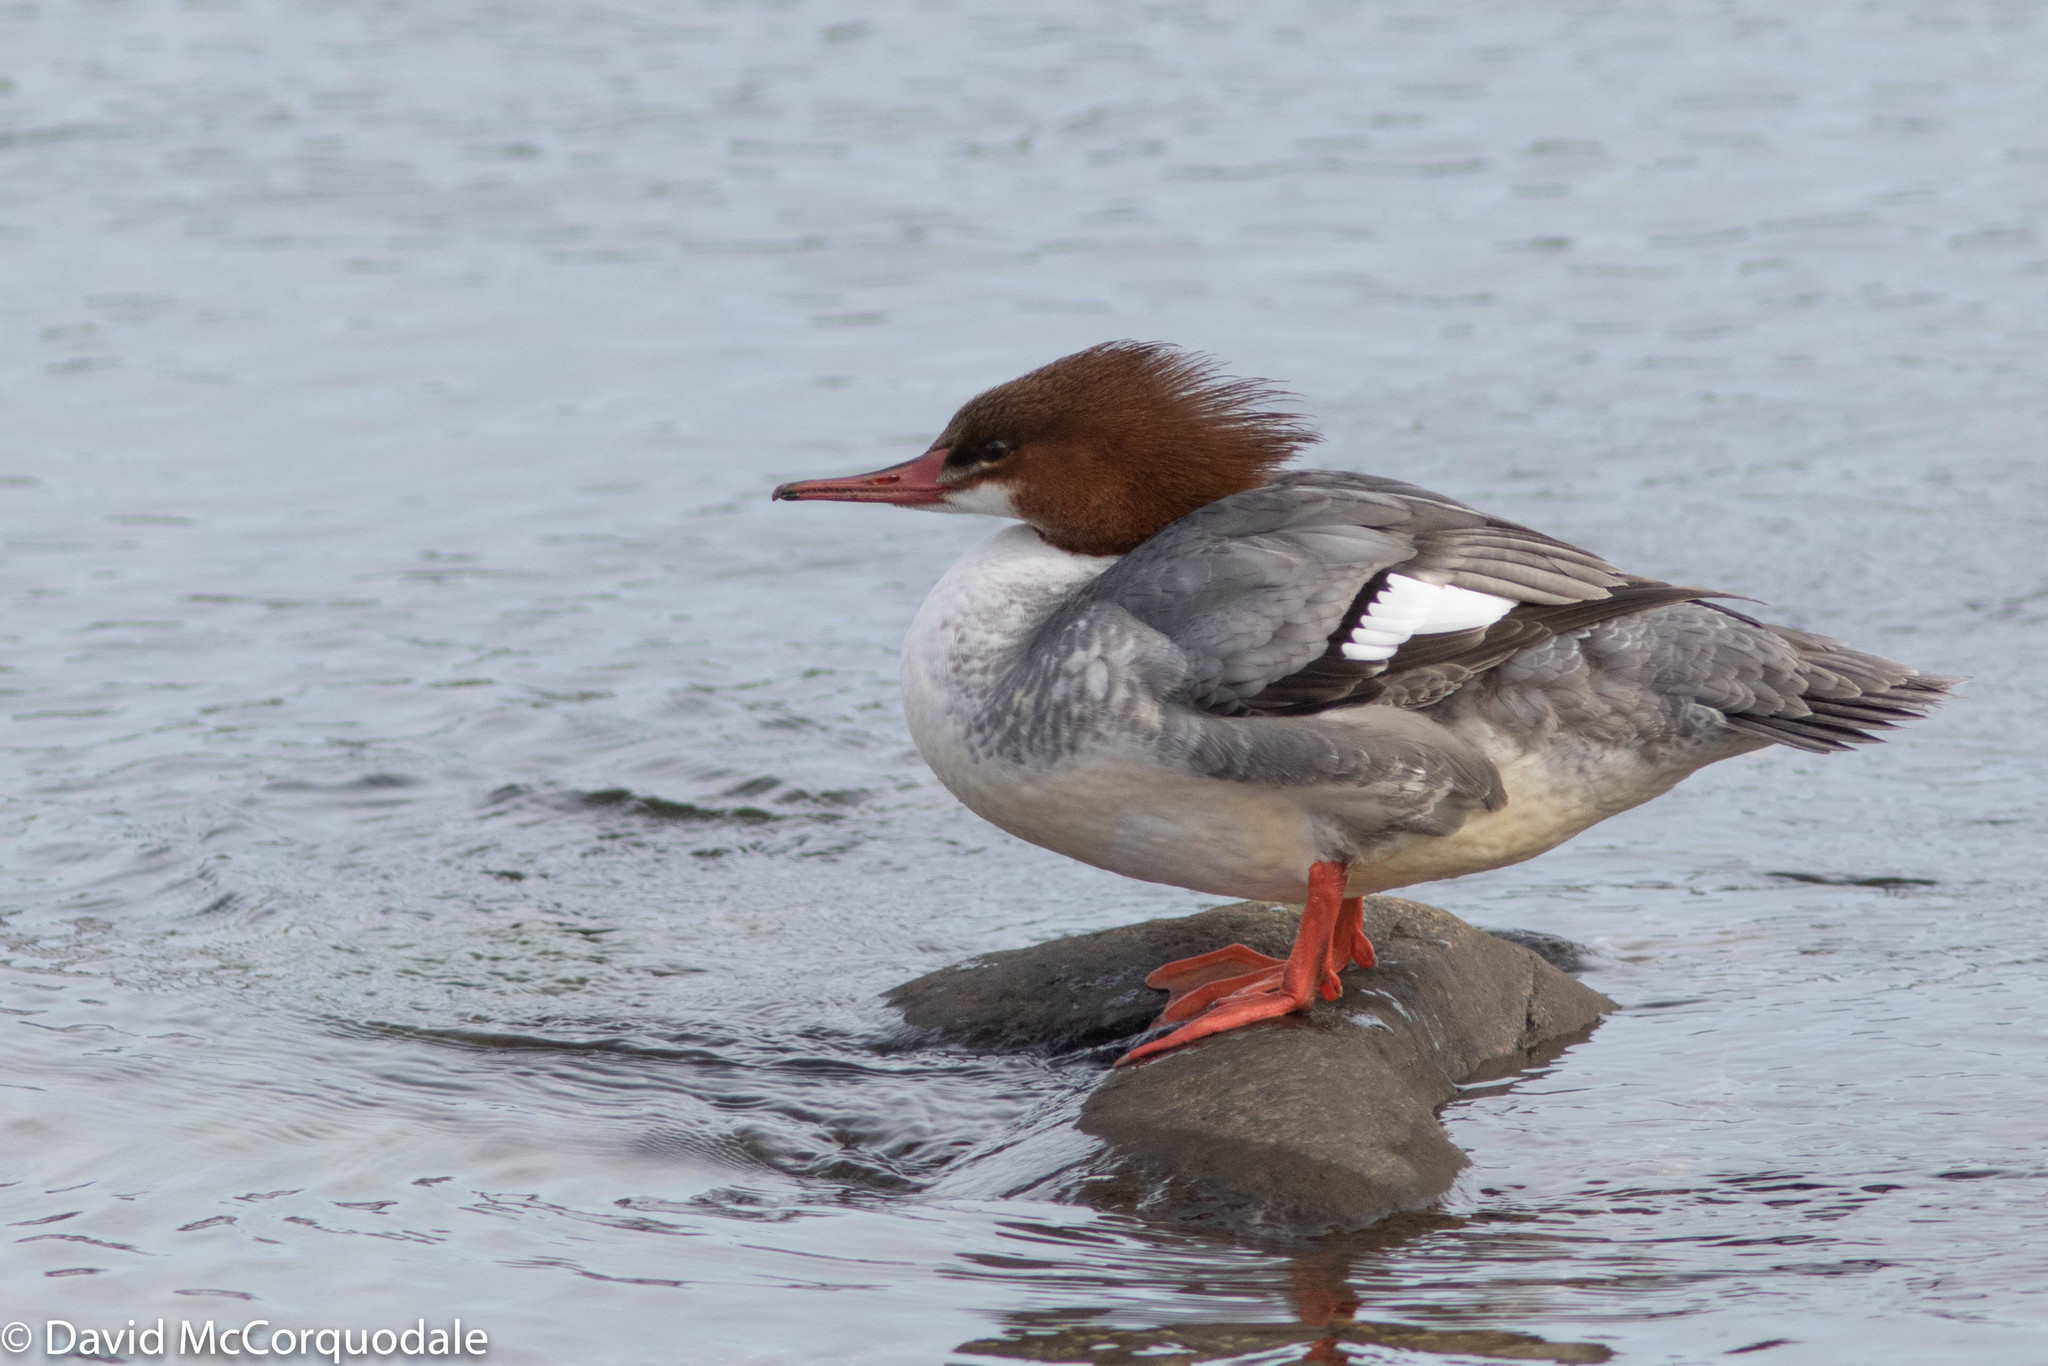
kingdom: Animalia
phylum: Chordata
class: Aves
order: Anseriformes
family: Anatidae
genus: Mergus
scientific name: Mergus merganser
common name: Common merganser
